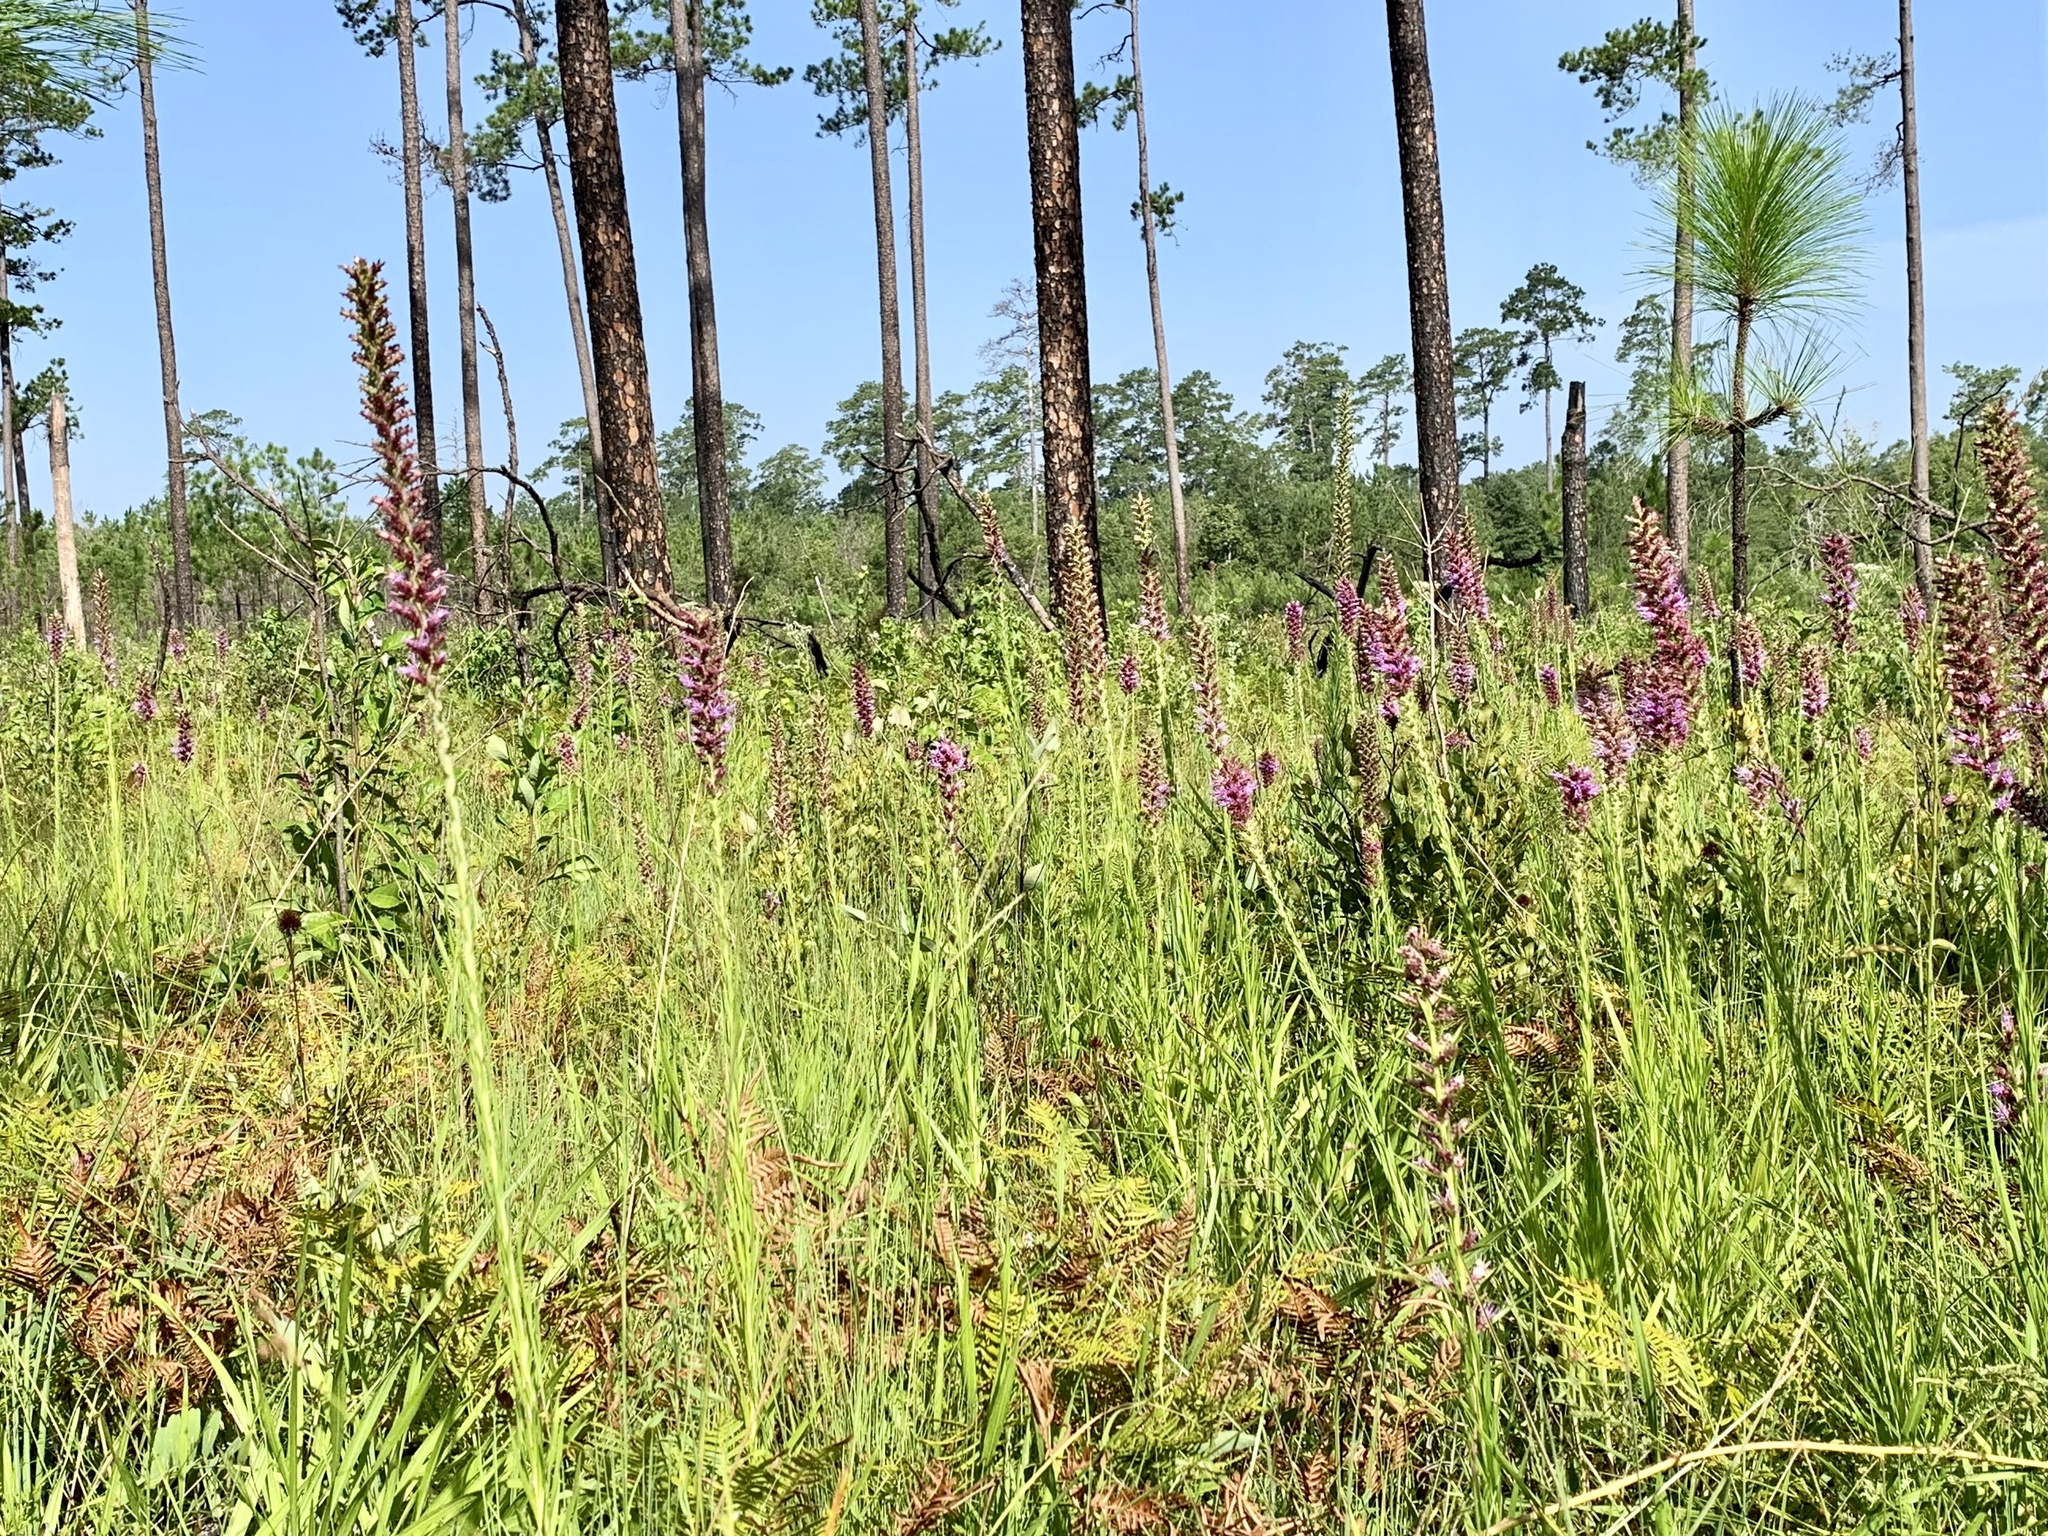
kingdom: Plantae
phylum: Tracheophyta
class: Magnoliopsida
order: Asterales
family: Asteraceae
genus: Liatris
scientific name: Liatris pycnostachya
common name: Cattail gayfeather
